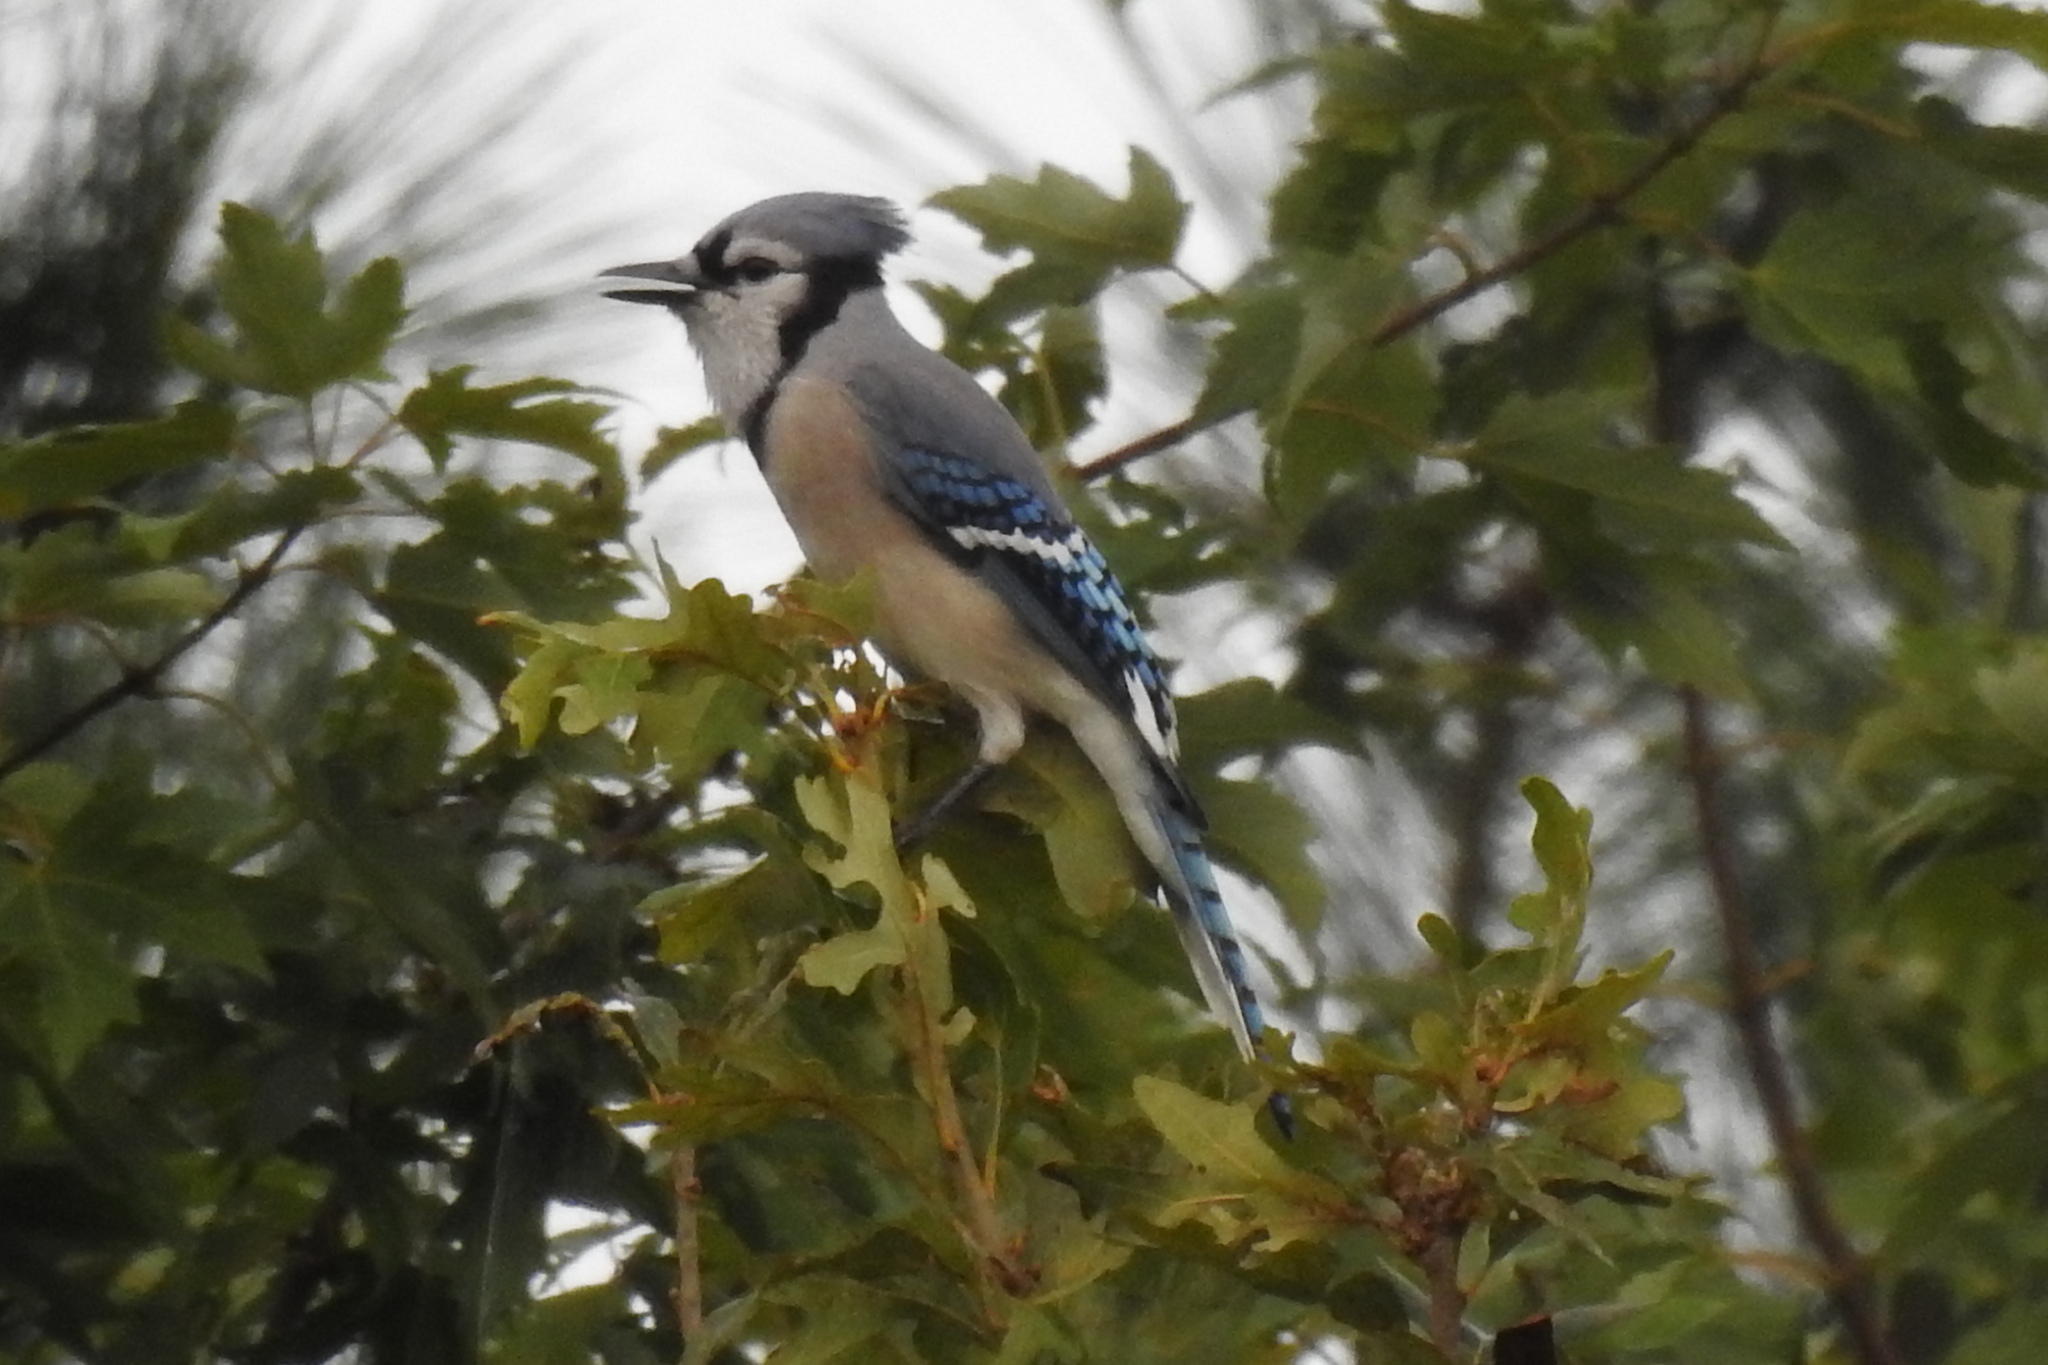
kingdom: Animalia
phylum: Chordata
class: Aves
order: Passeriformes
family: Corvidae
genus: Cyanocitta
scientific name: Cyanocitta cristata
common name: Blue jay
